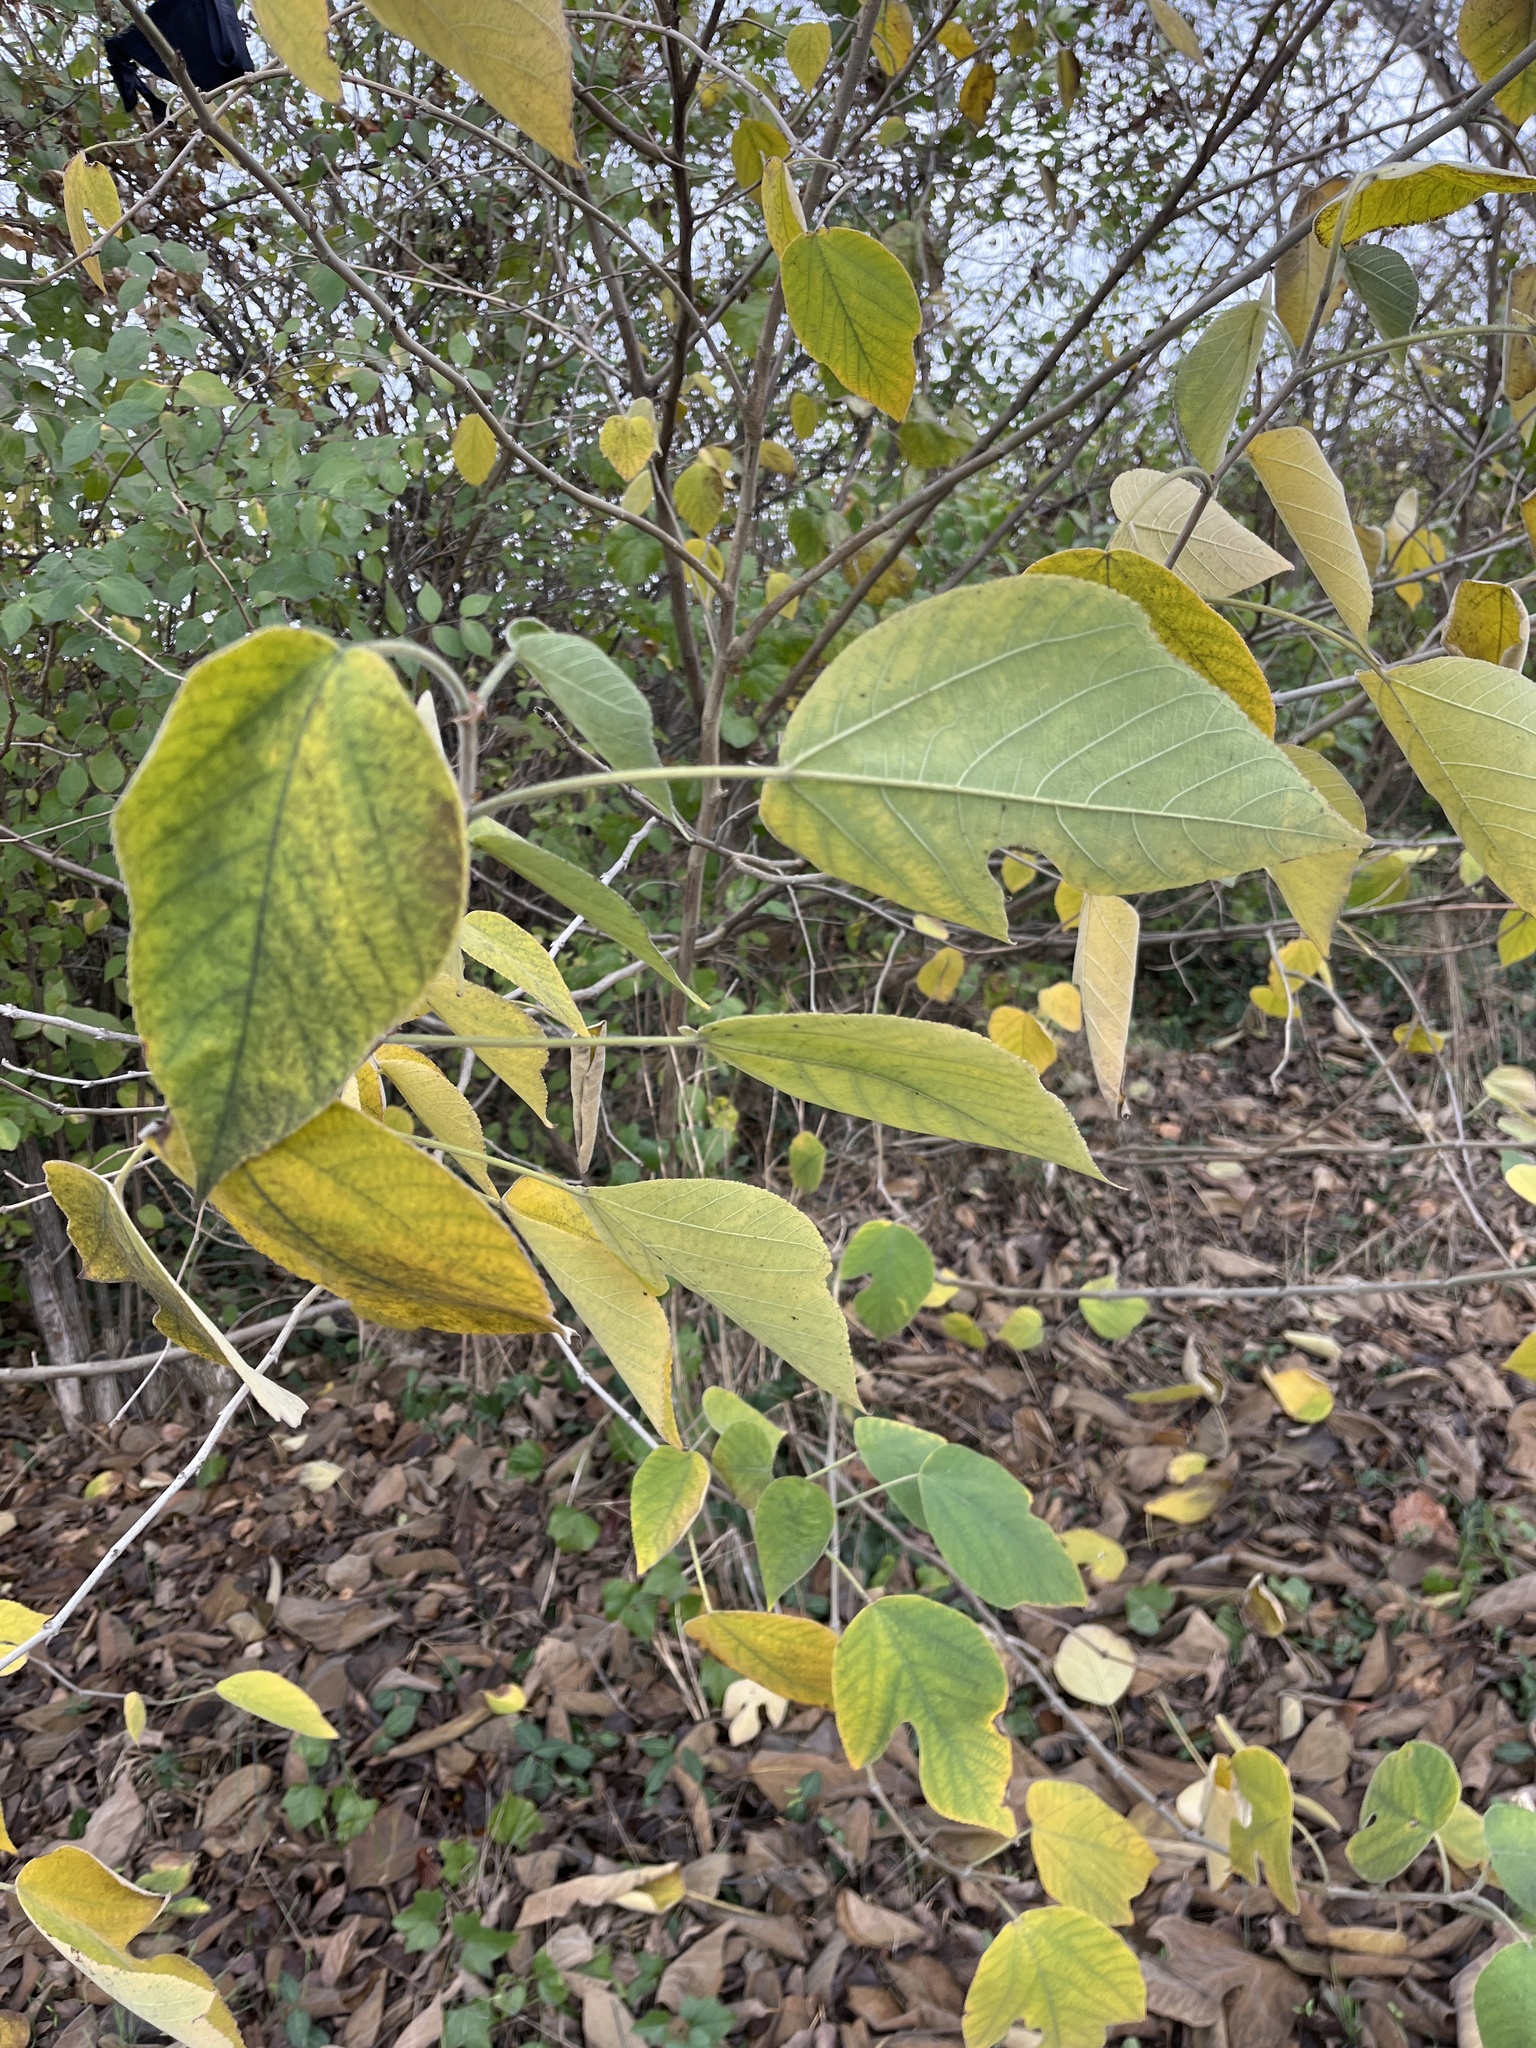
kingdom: Plantae
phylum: Tracheophyta
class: Magnoliopsida
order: Rosales
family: Moraceae
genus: Broussonetia
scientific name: Broussonetia papyrifera
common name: Paper mulberry
